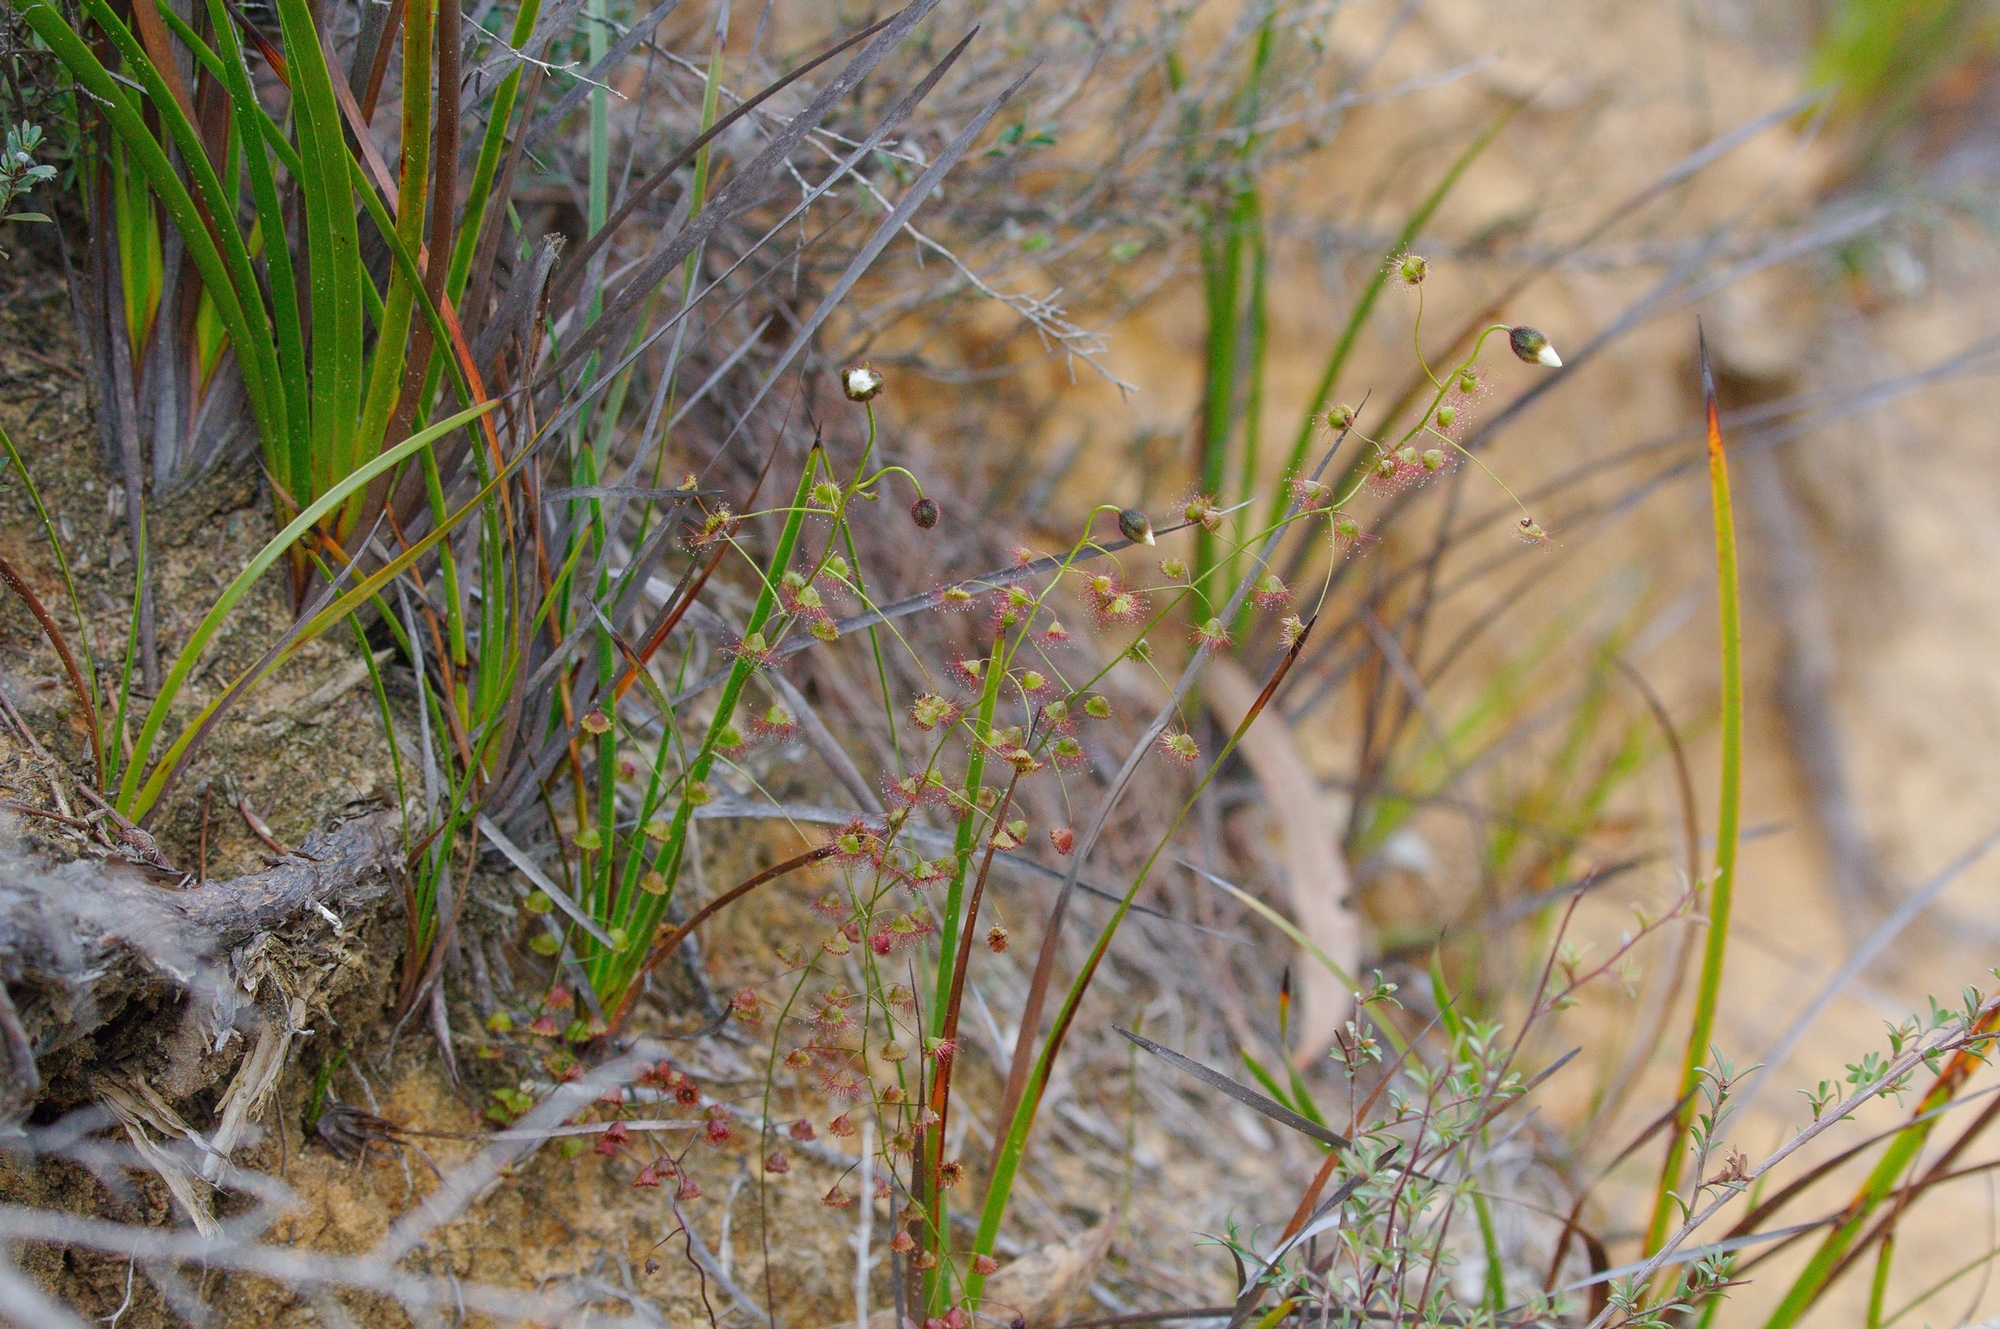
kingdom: Plantae
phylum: Tracheophyta
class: Magnoliopsida
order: Caryophyllales
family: Droseraceae
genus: Drosera
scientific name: Drosera planchonii
